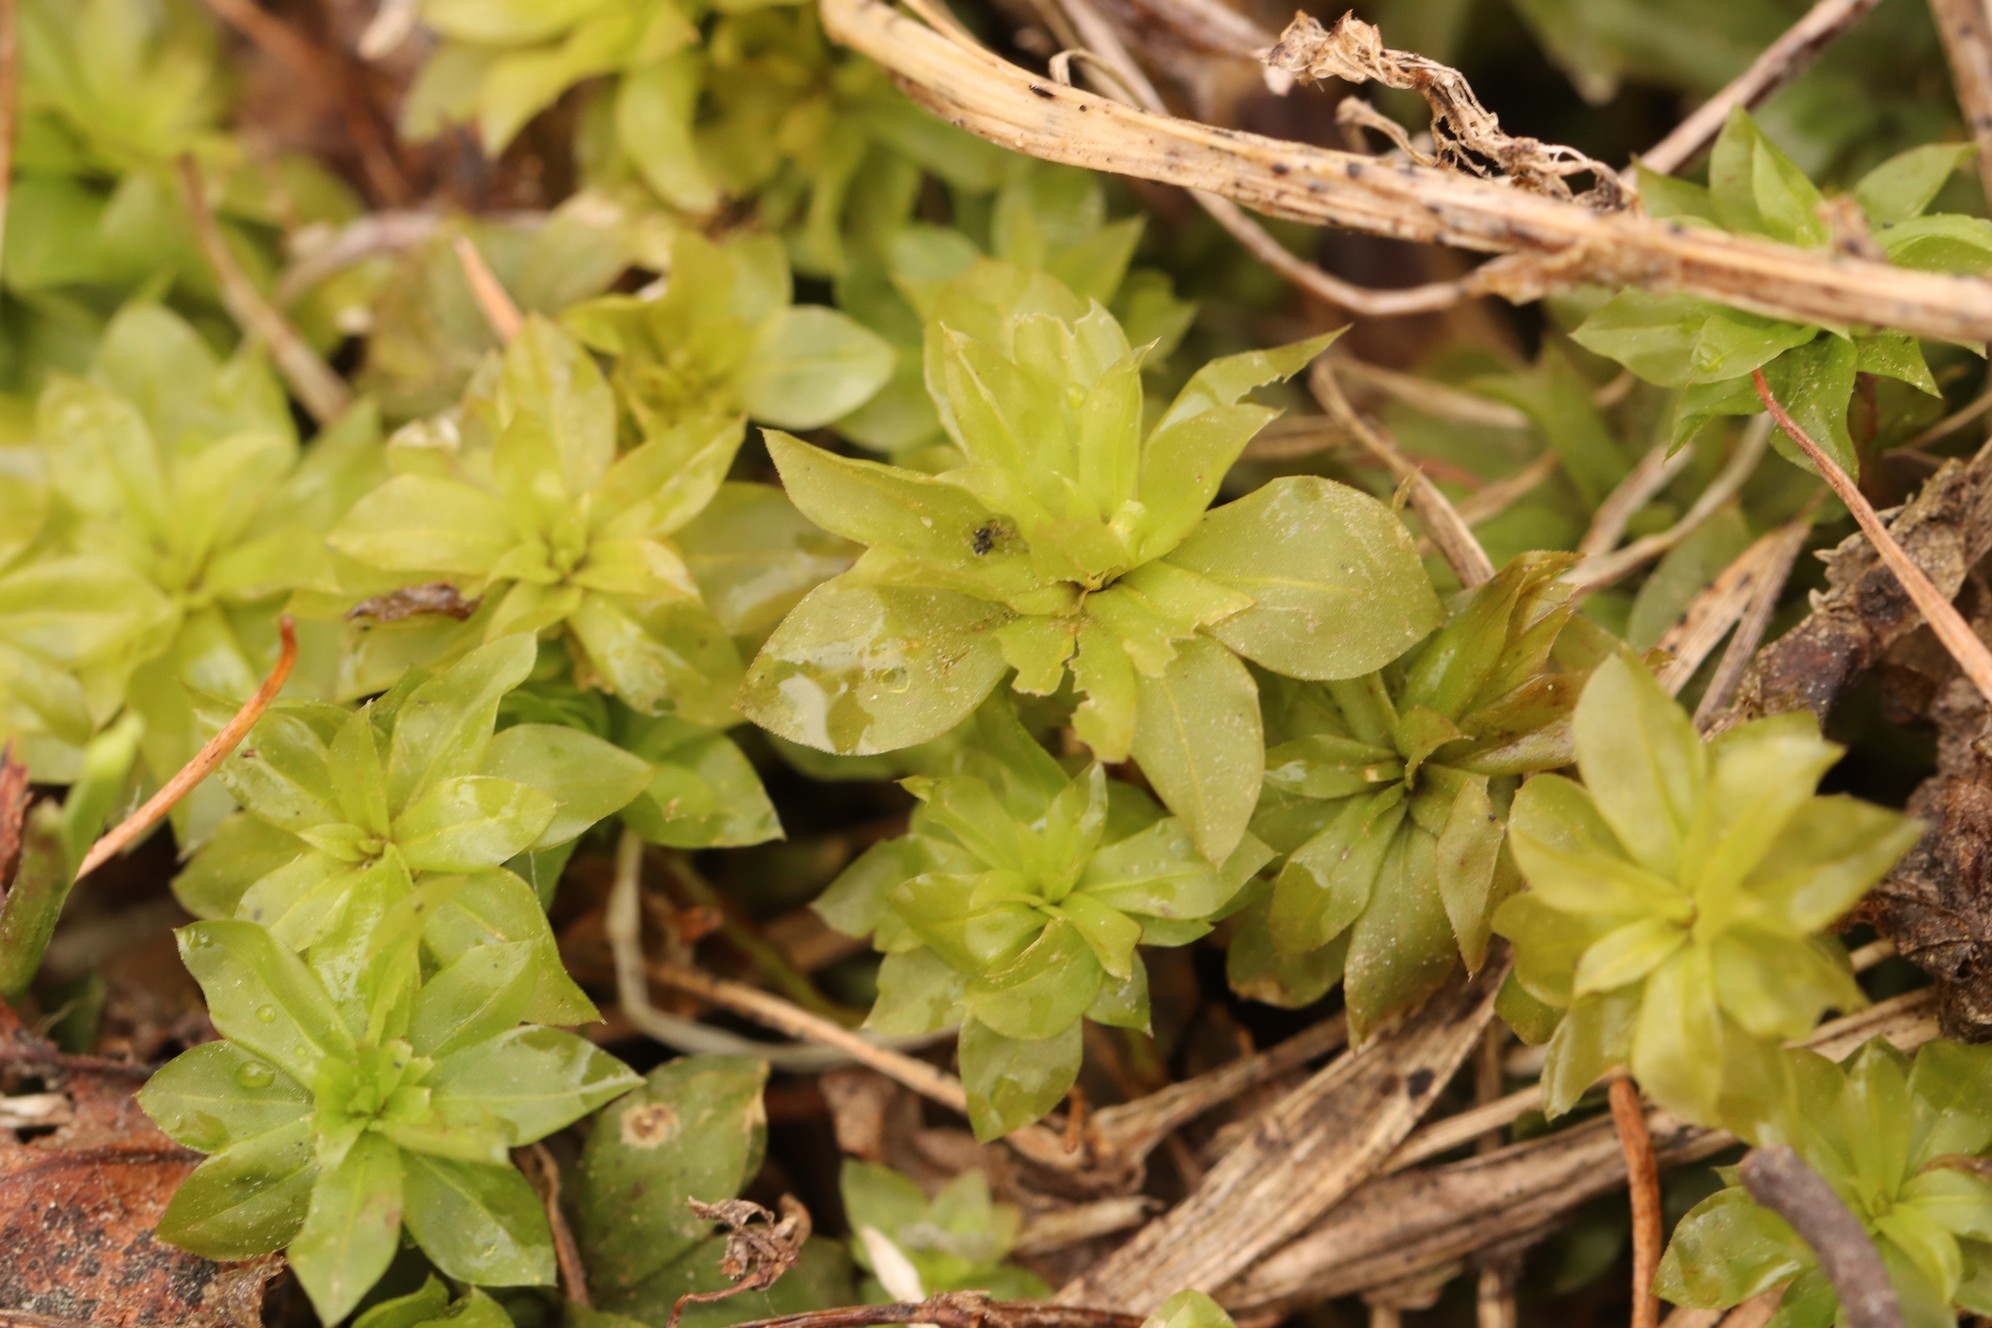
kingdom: Plantae
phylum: Bryophyta
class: Bryopsida
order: Bryales
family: Bryaceae
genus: Rhodobryum
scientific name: Rhodobryum roseum
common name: Rose-moss
